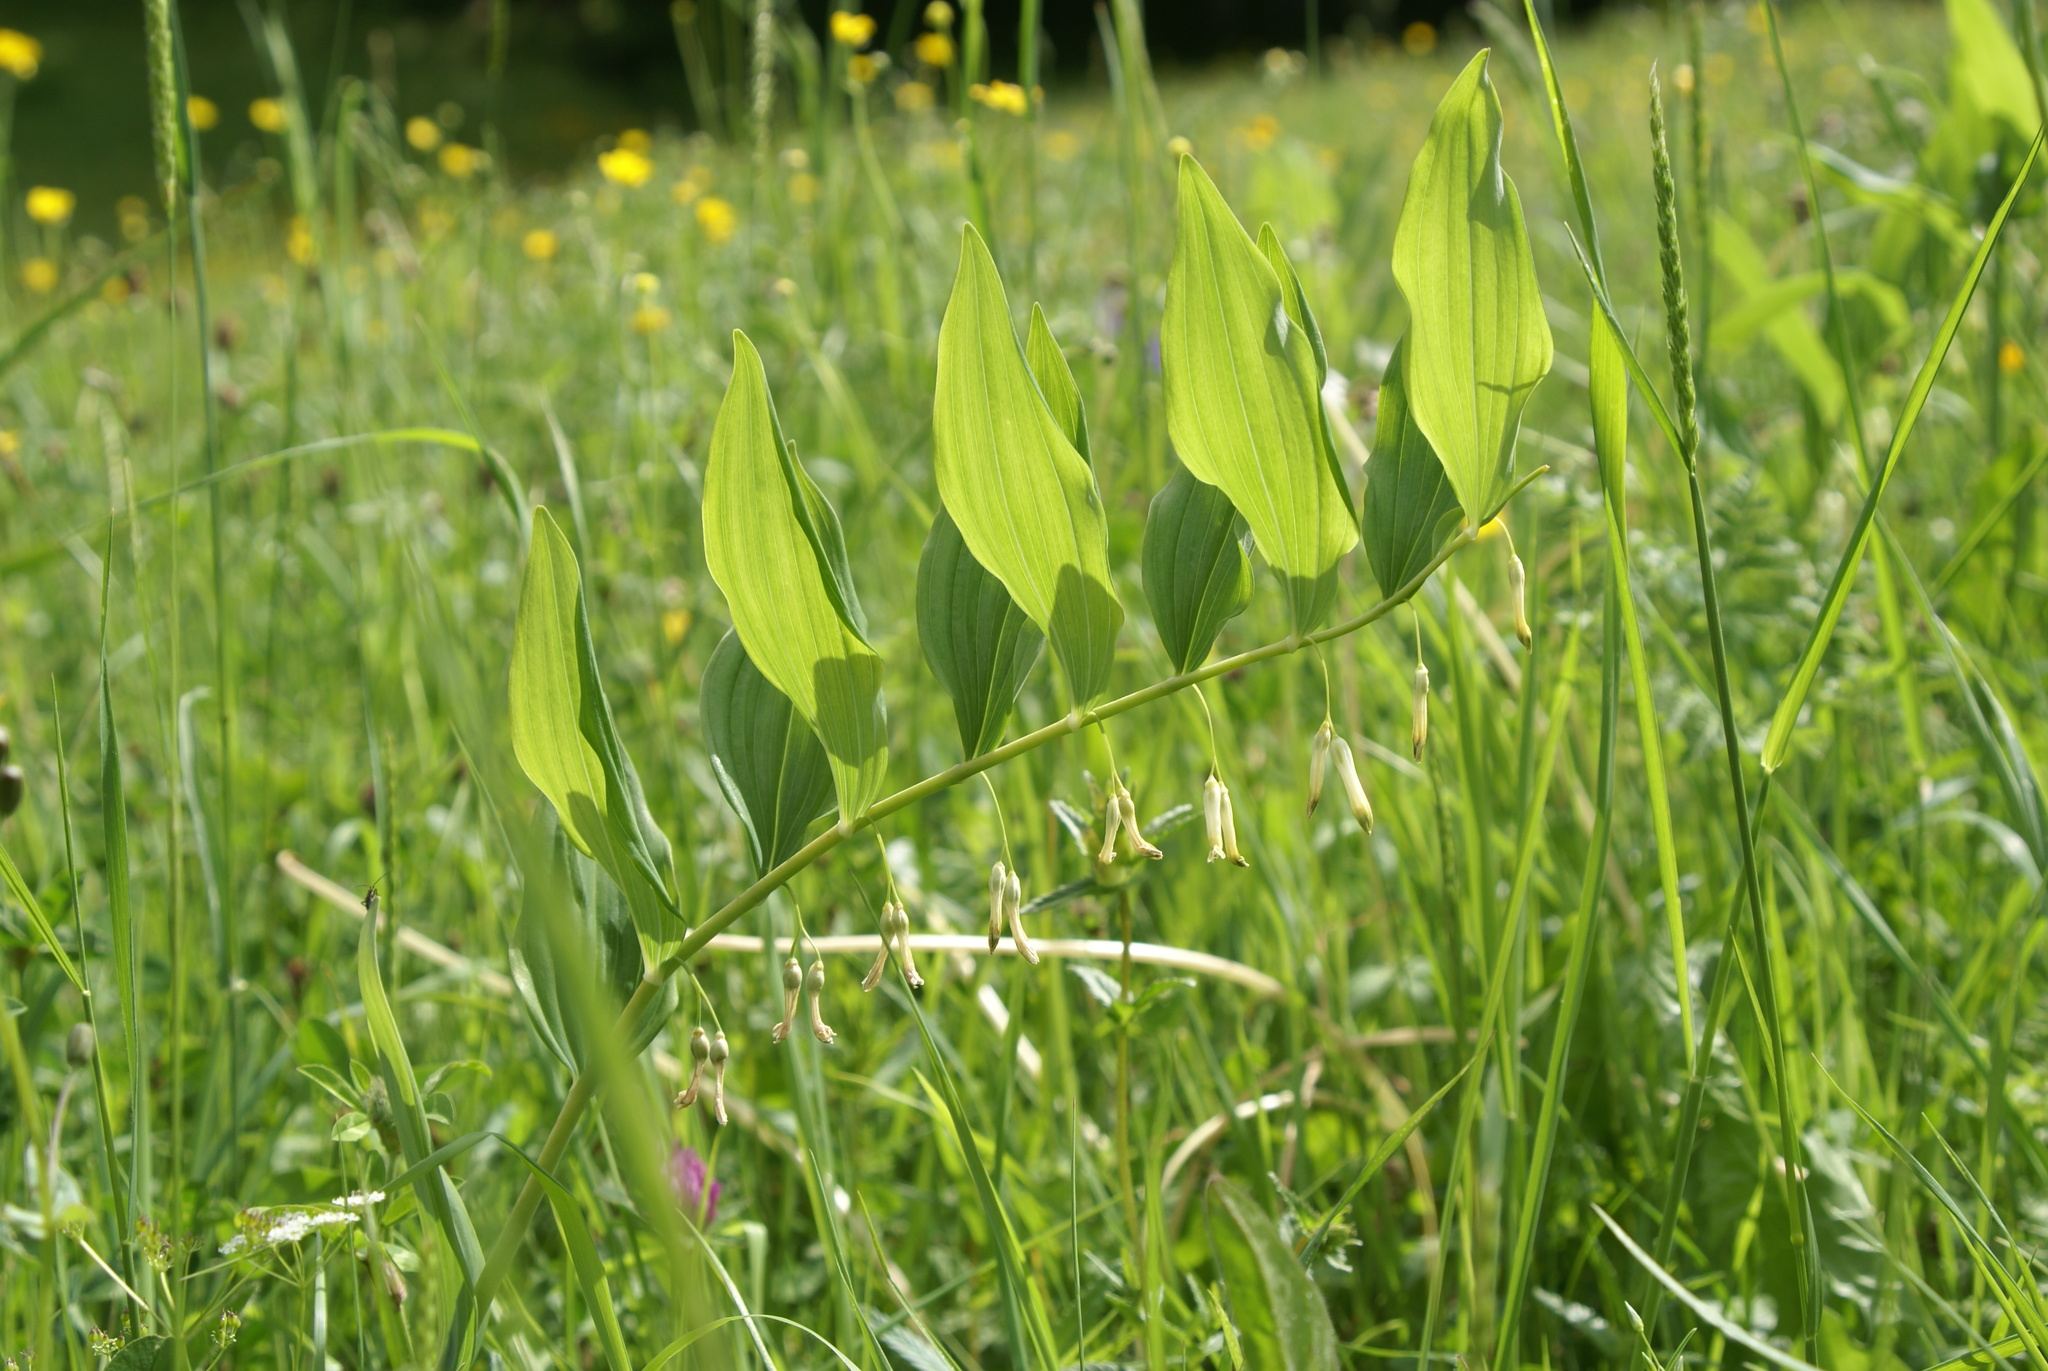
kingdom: Plantae
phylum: Tracheophyta
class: Liliopsida
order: Asparagales
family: Asparagaceae
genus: Polygonatum
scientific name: Polygonatum multiflorum
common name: Solomon's-seal
